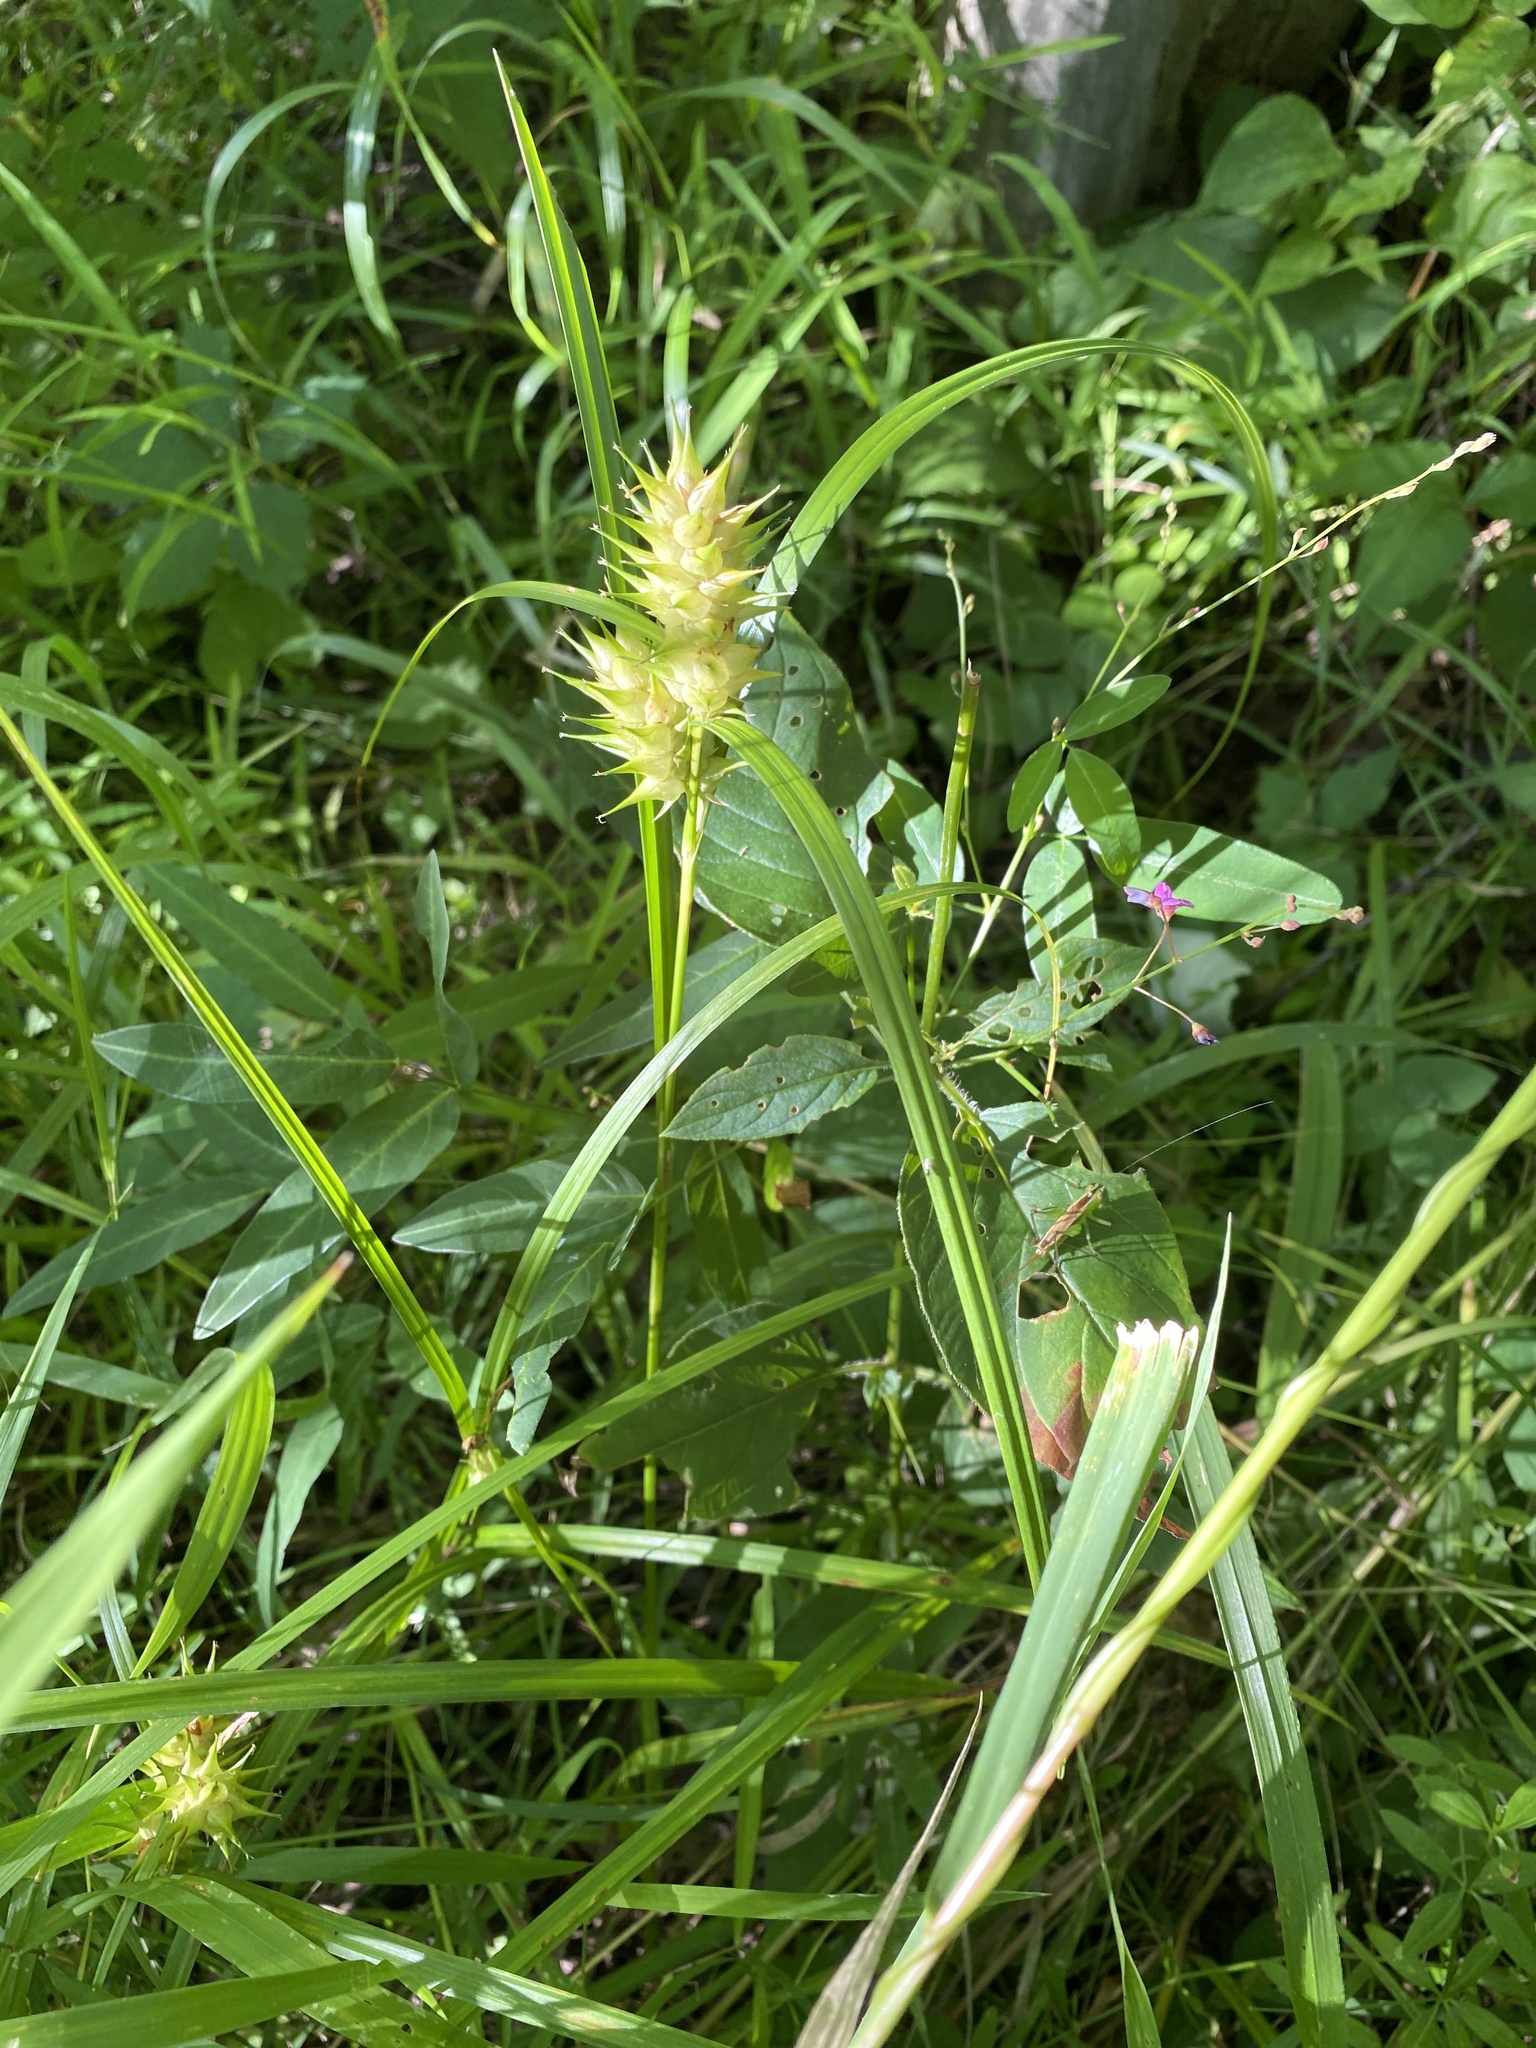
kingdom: Plantae
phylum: Tracheophyta
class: Liliopsida
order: Poales
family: Cyperaceae
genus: Carex
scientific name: Carex lupulina
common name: Hop sedge
